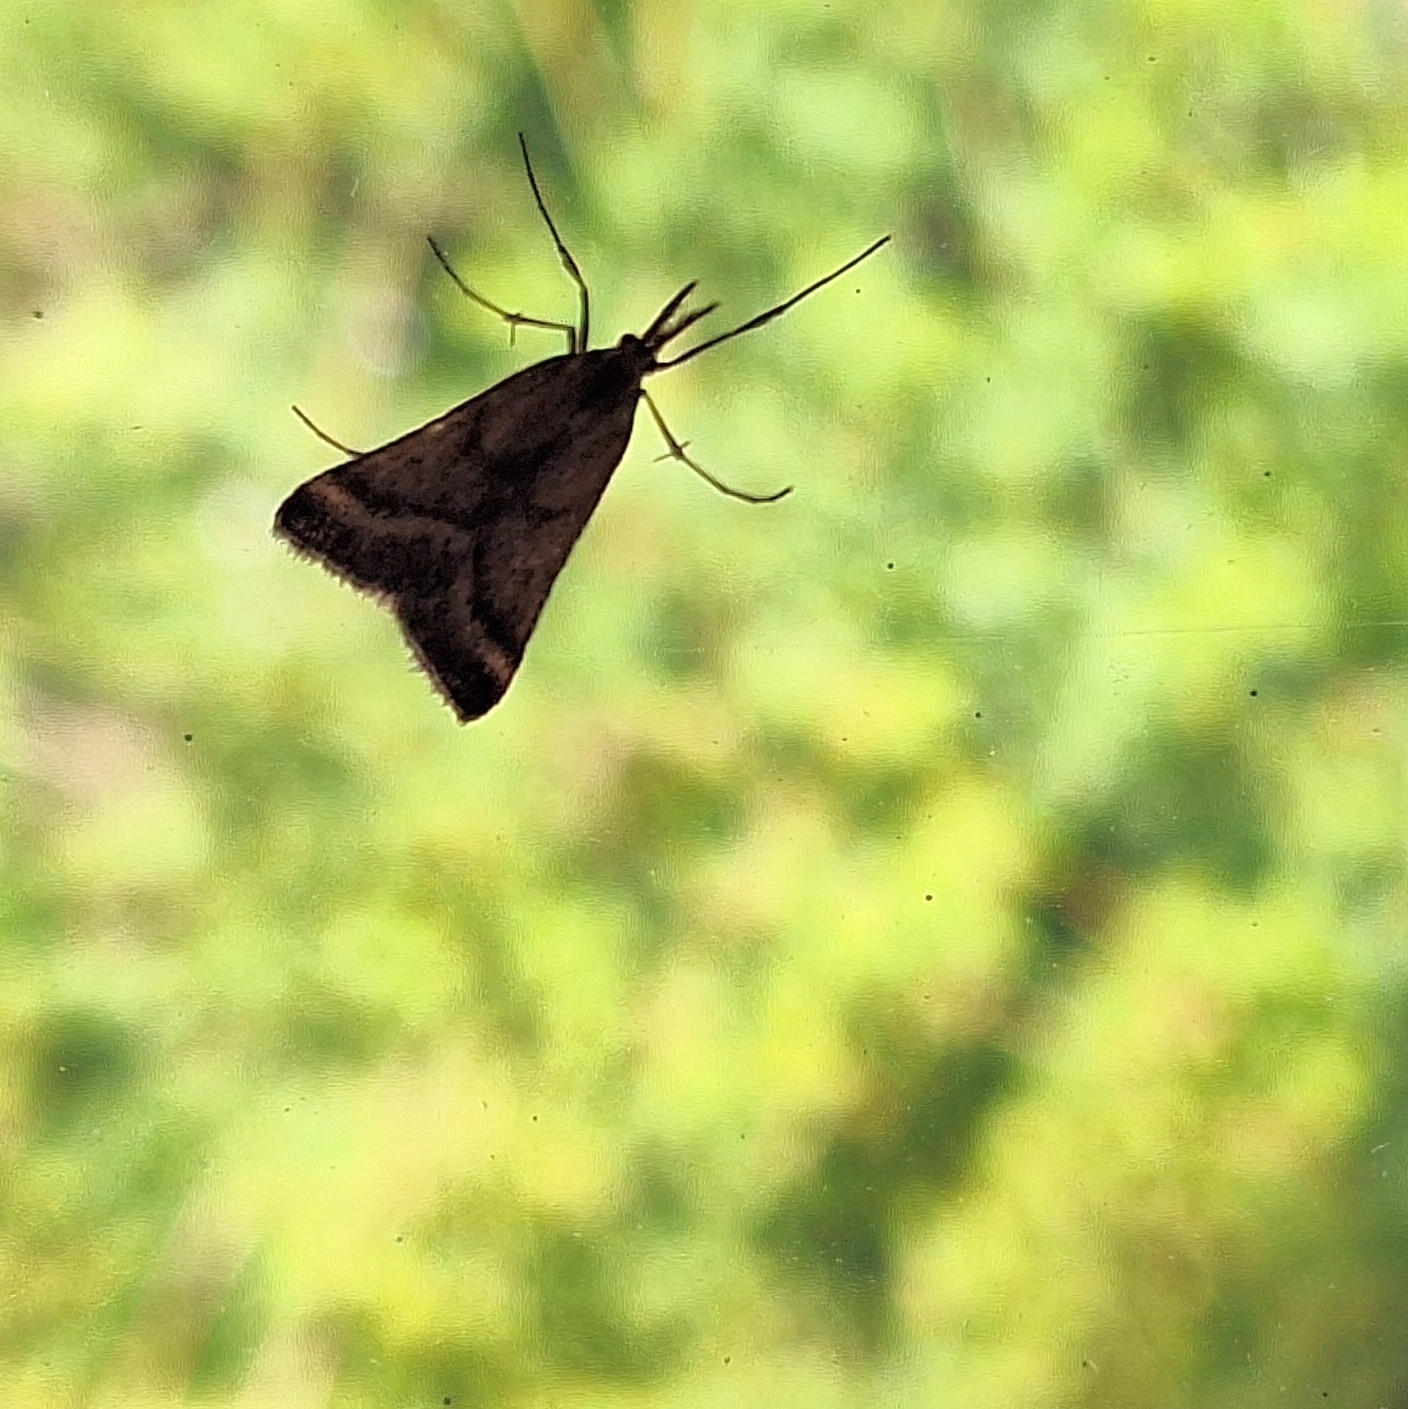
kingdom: Animalia
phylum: Arthropoda
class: Insecta
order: Lepidoptera
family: Pyralidae
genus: Synaphe
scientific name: Synaphe punctalis
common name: Long-legged tabby
